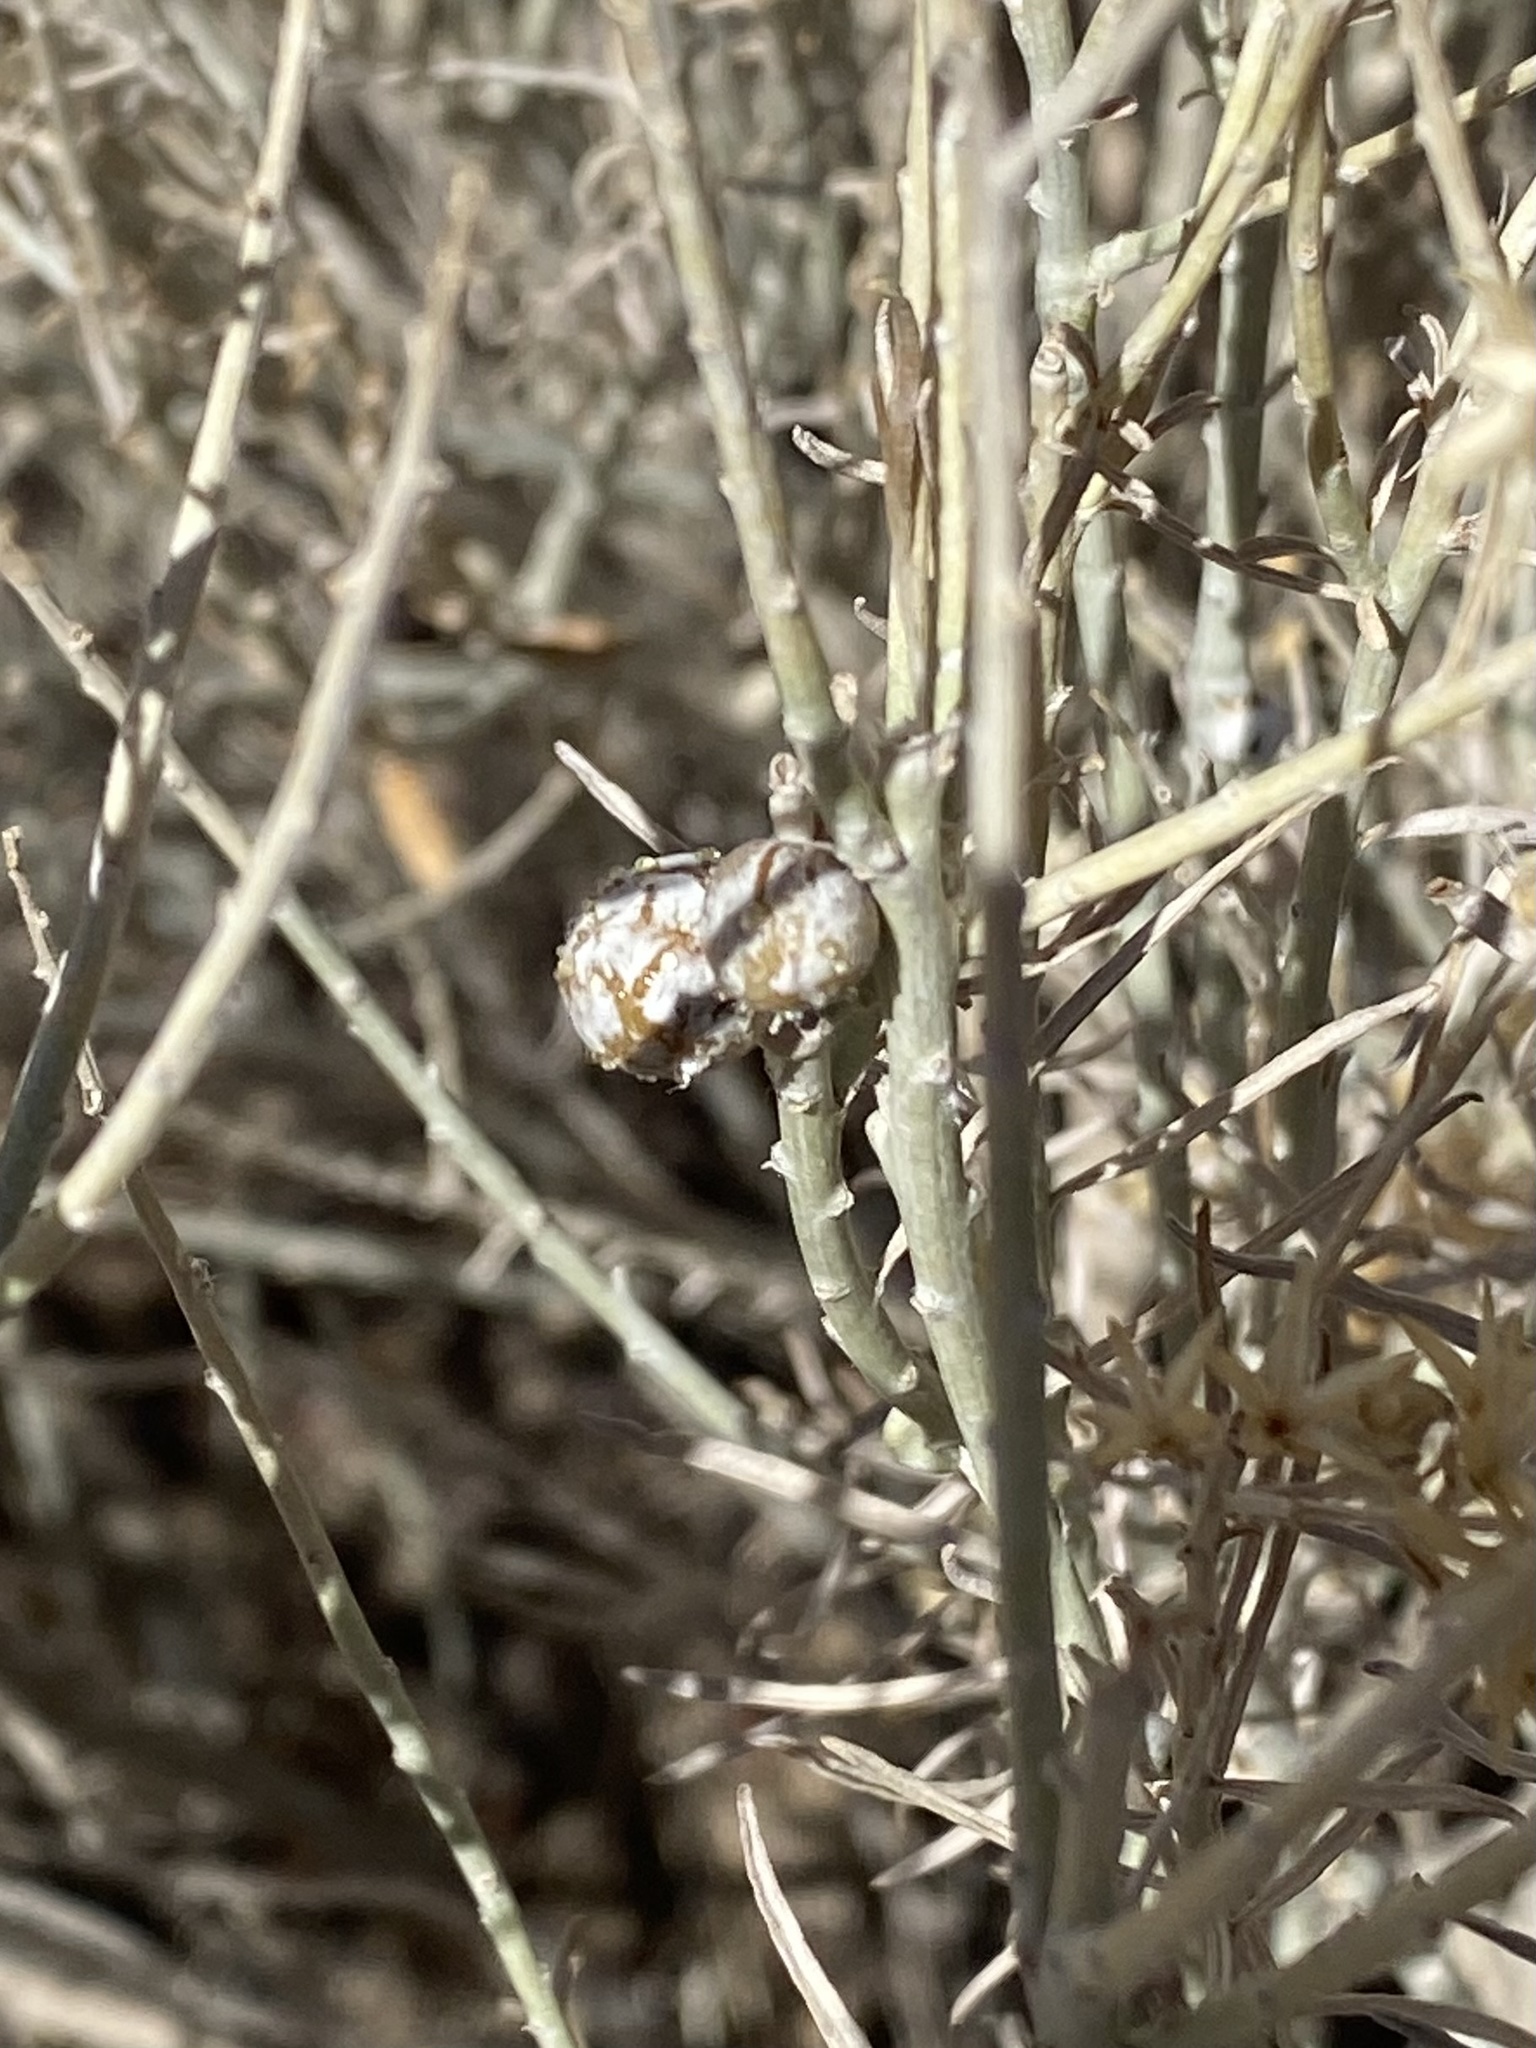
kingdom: Animalia
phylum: Arthropoda
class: Insecta
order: Diptera
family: Tephritidae
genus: Aciurina
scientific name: Aciurina trixa
